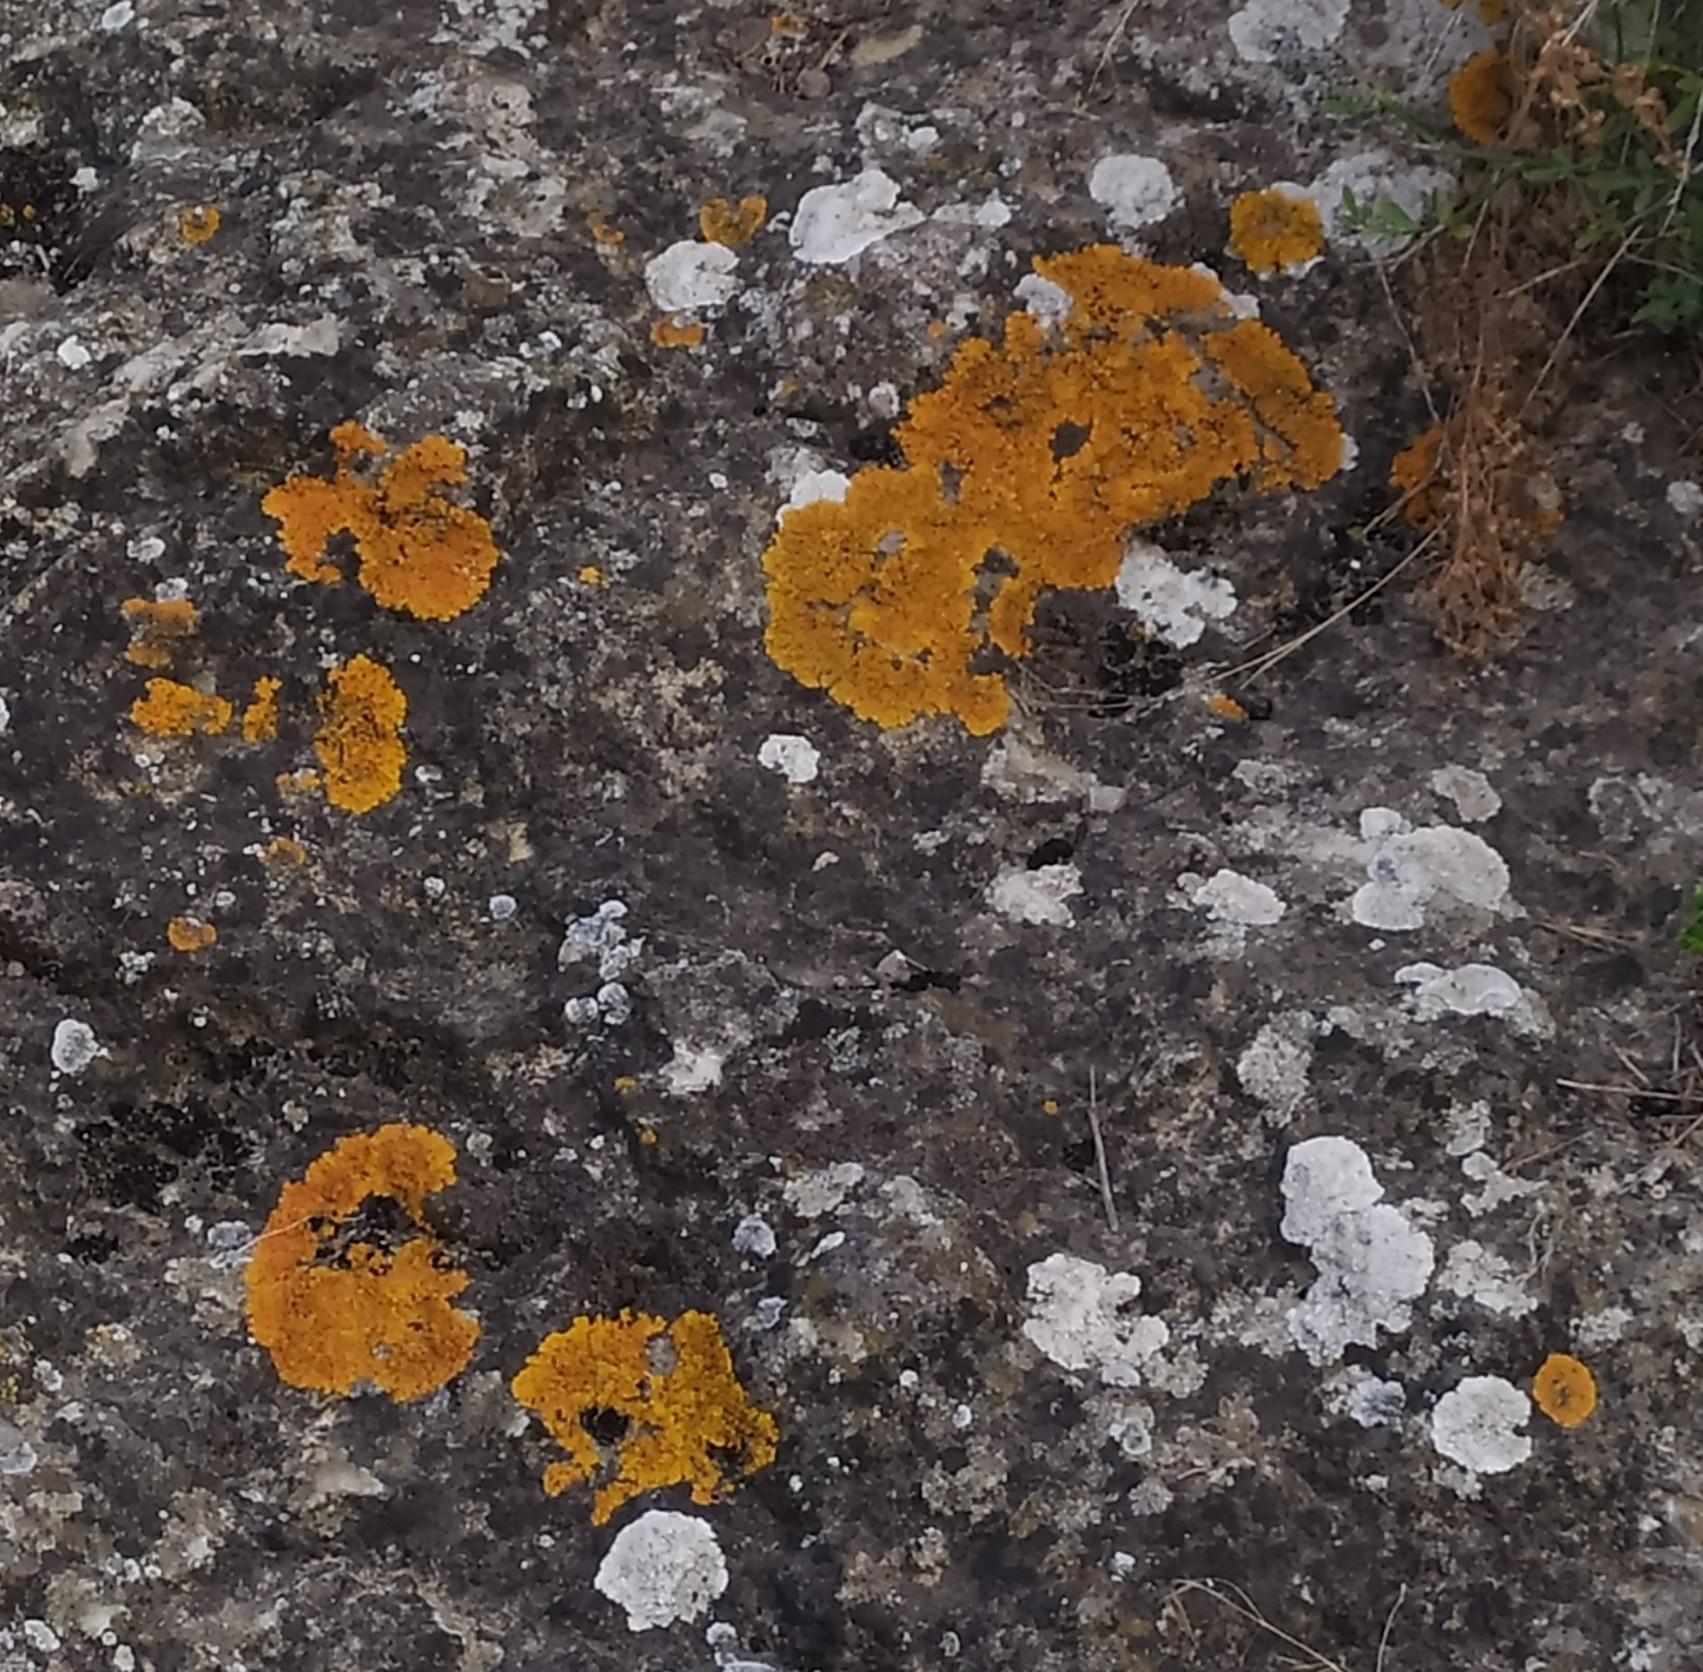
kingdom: Fungi
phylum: Ascomycota
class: Lecanoromycetes
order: Teloschistales
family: Teloschistaceae
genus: Variospora
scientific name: Variospora aurantia
